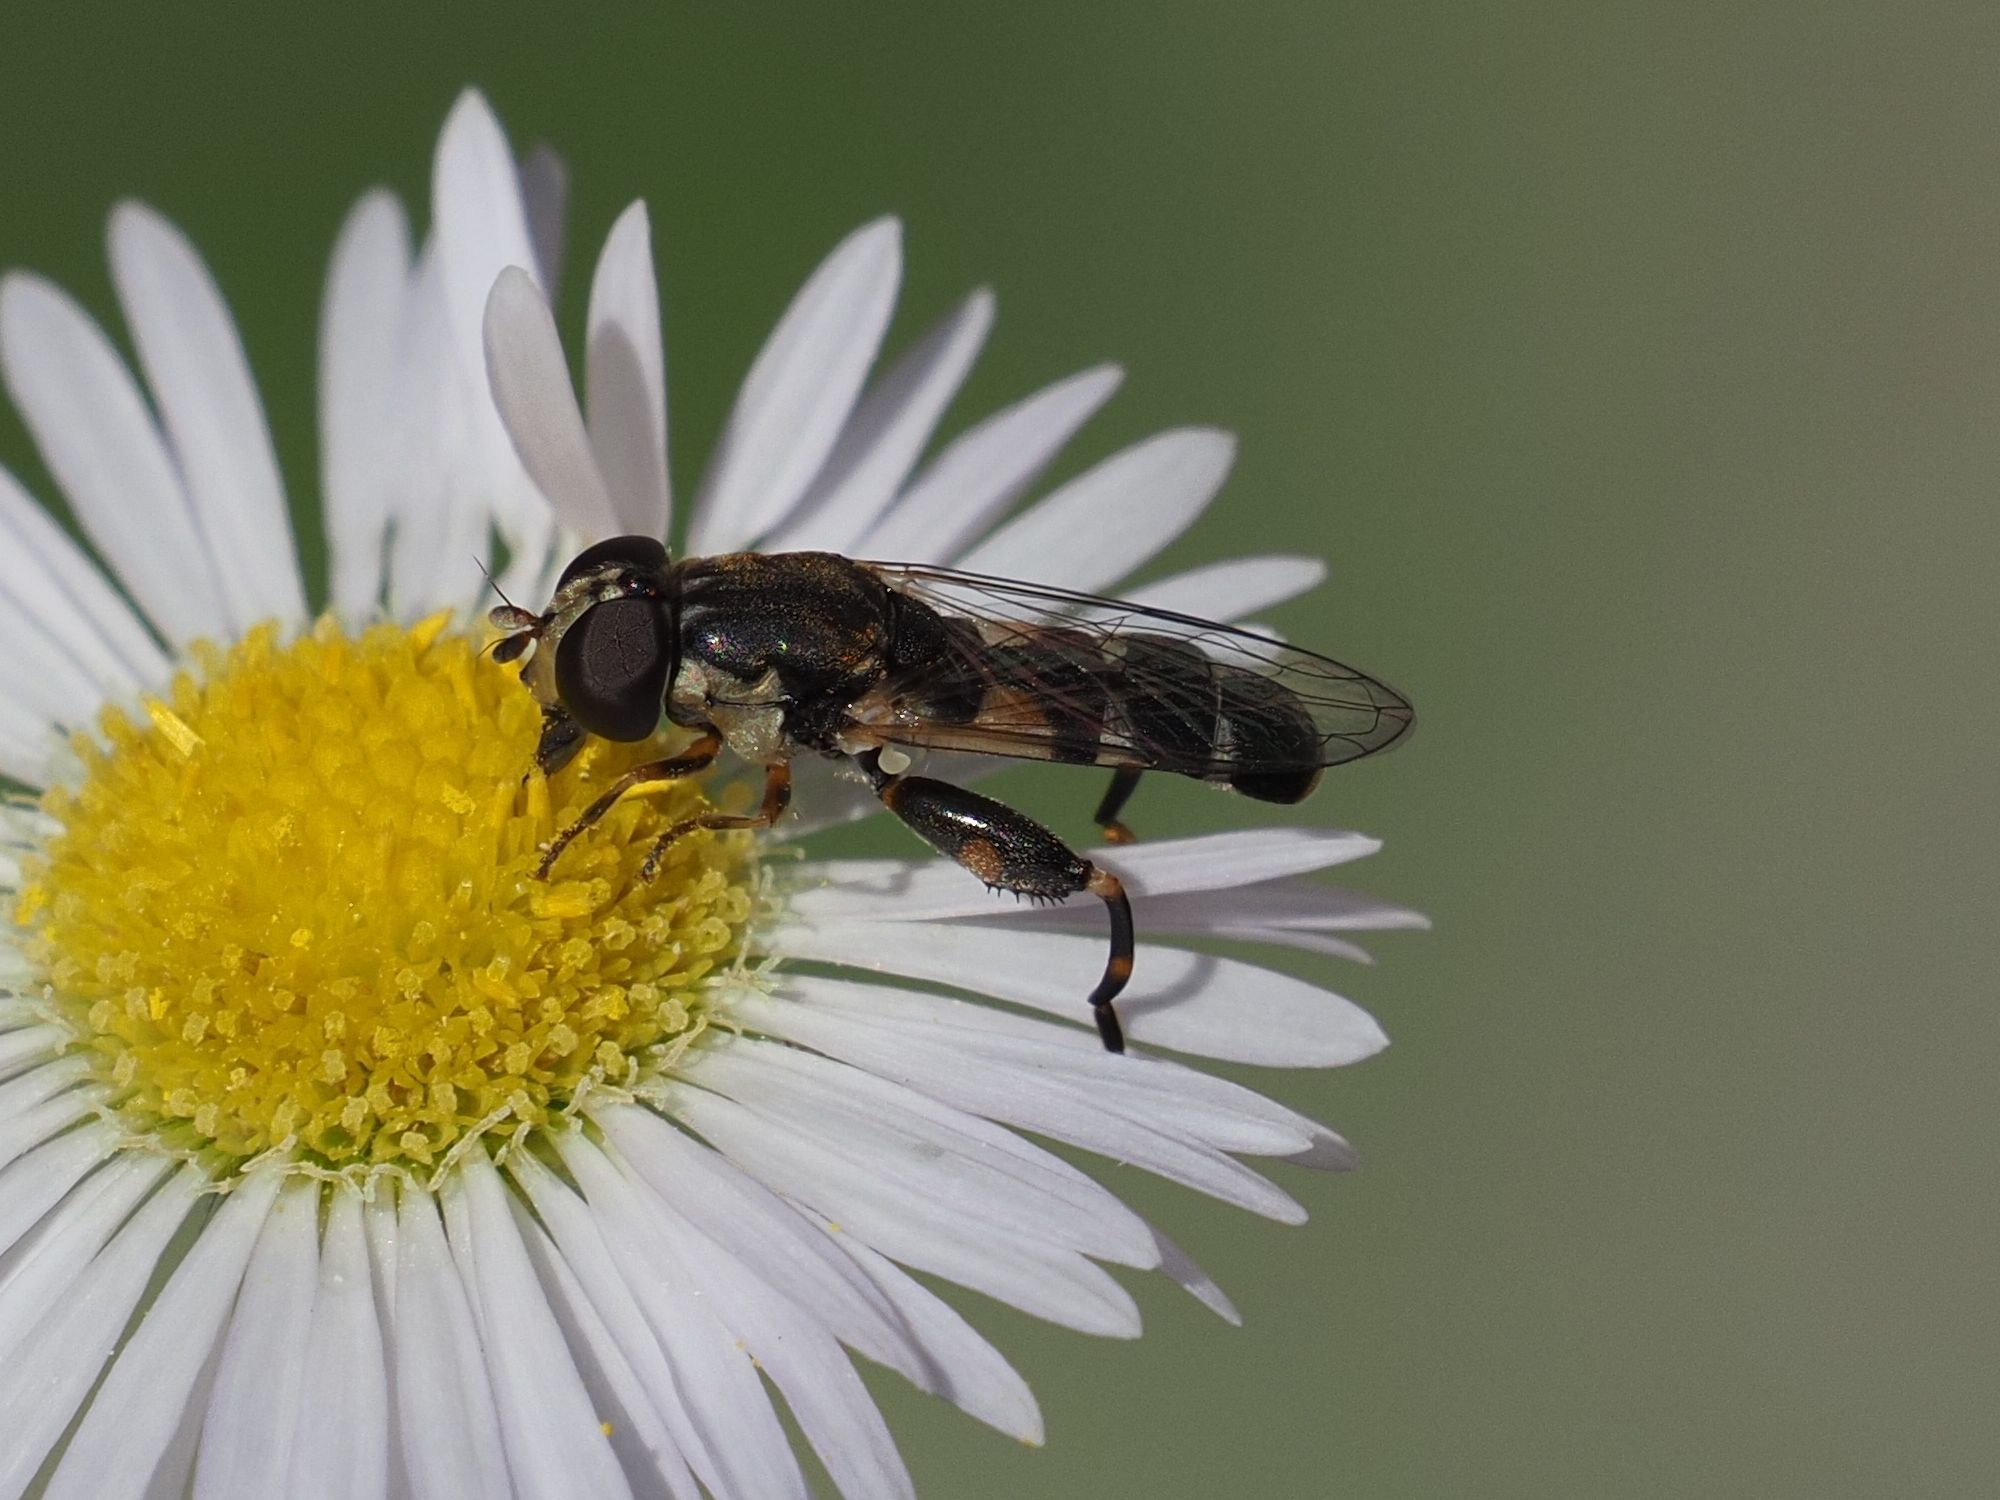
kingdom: Animalia
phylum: Arthropoda
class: Insecta
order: Diptera
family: Syrphidae
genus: Syritta
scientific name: Syritta pipiens
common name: Hover fly
